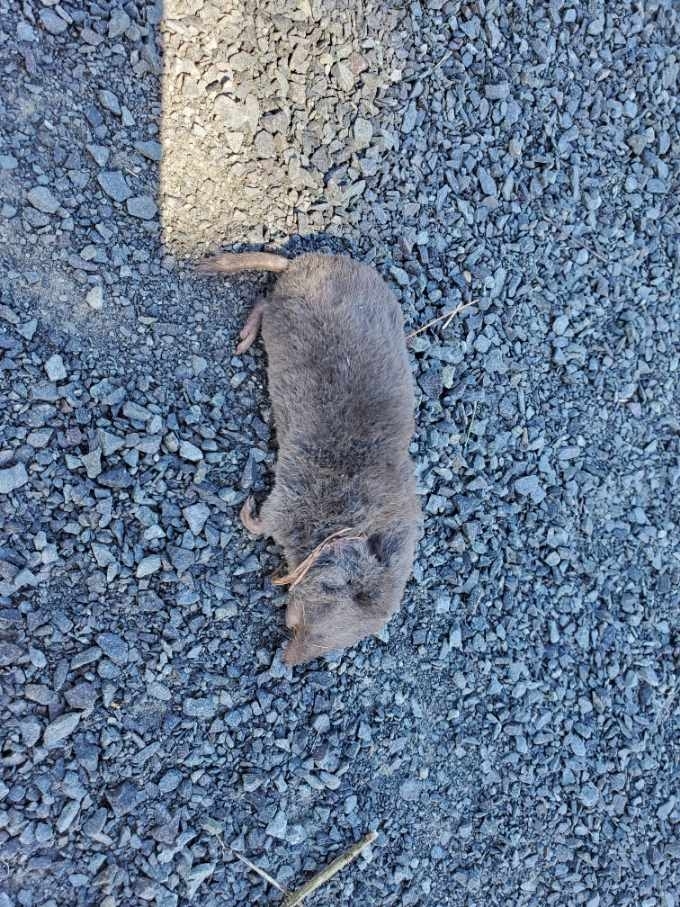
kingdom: Animalia
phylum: Chordata
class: Mammalia
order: Soricomorpha
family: Soricidae
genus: Blarina
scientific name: Blarina brevicauda
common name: Northern short-tailed shrew
